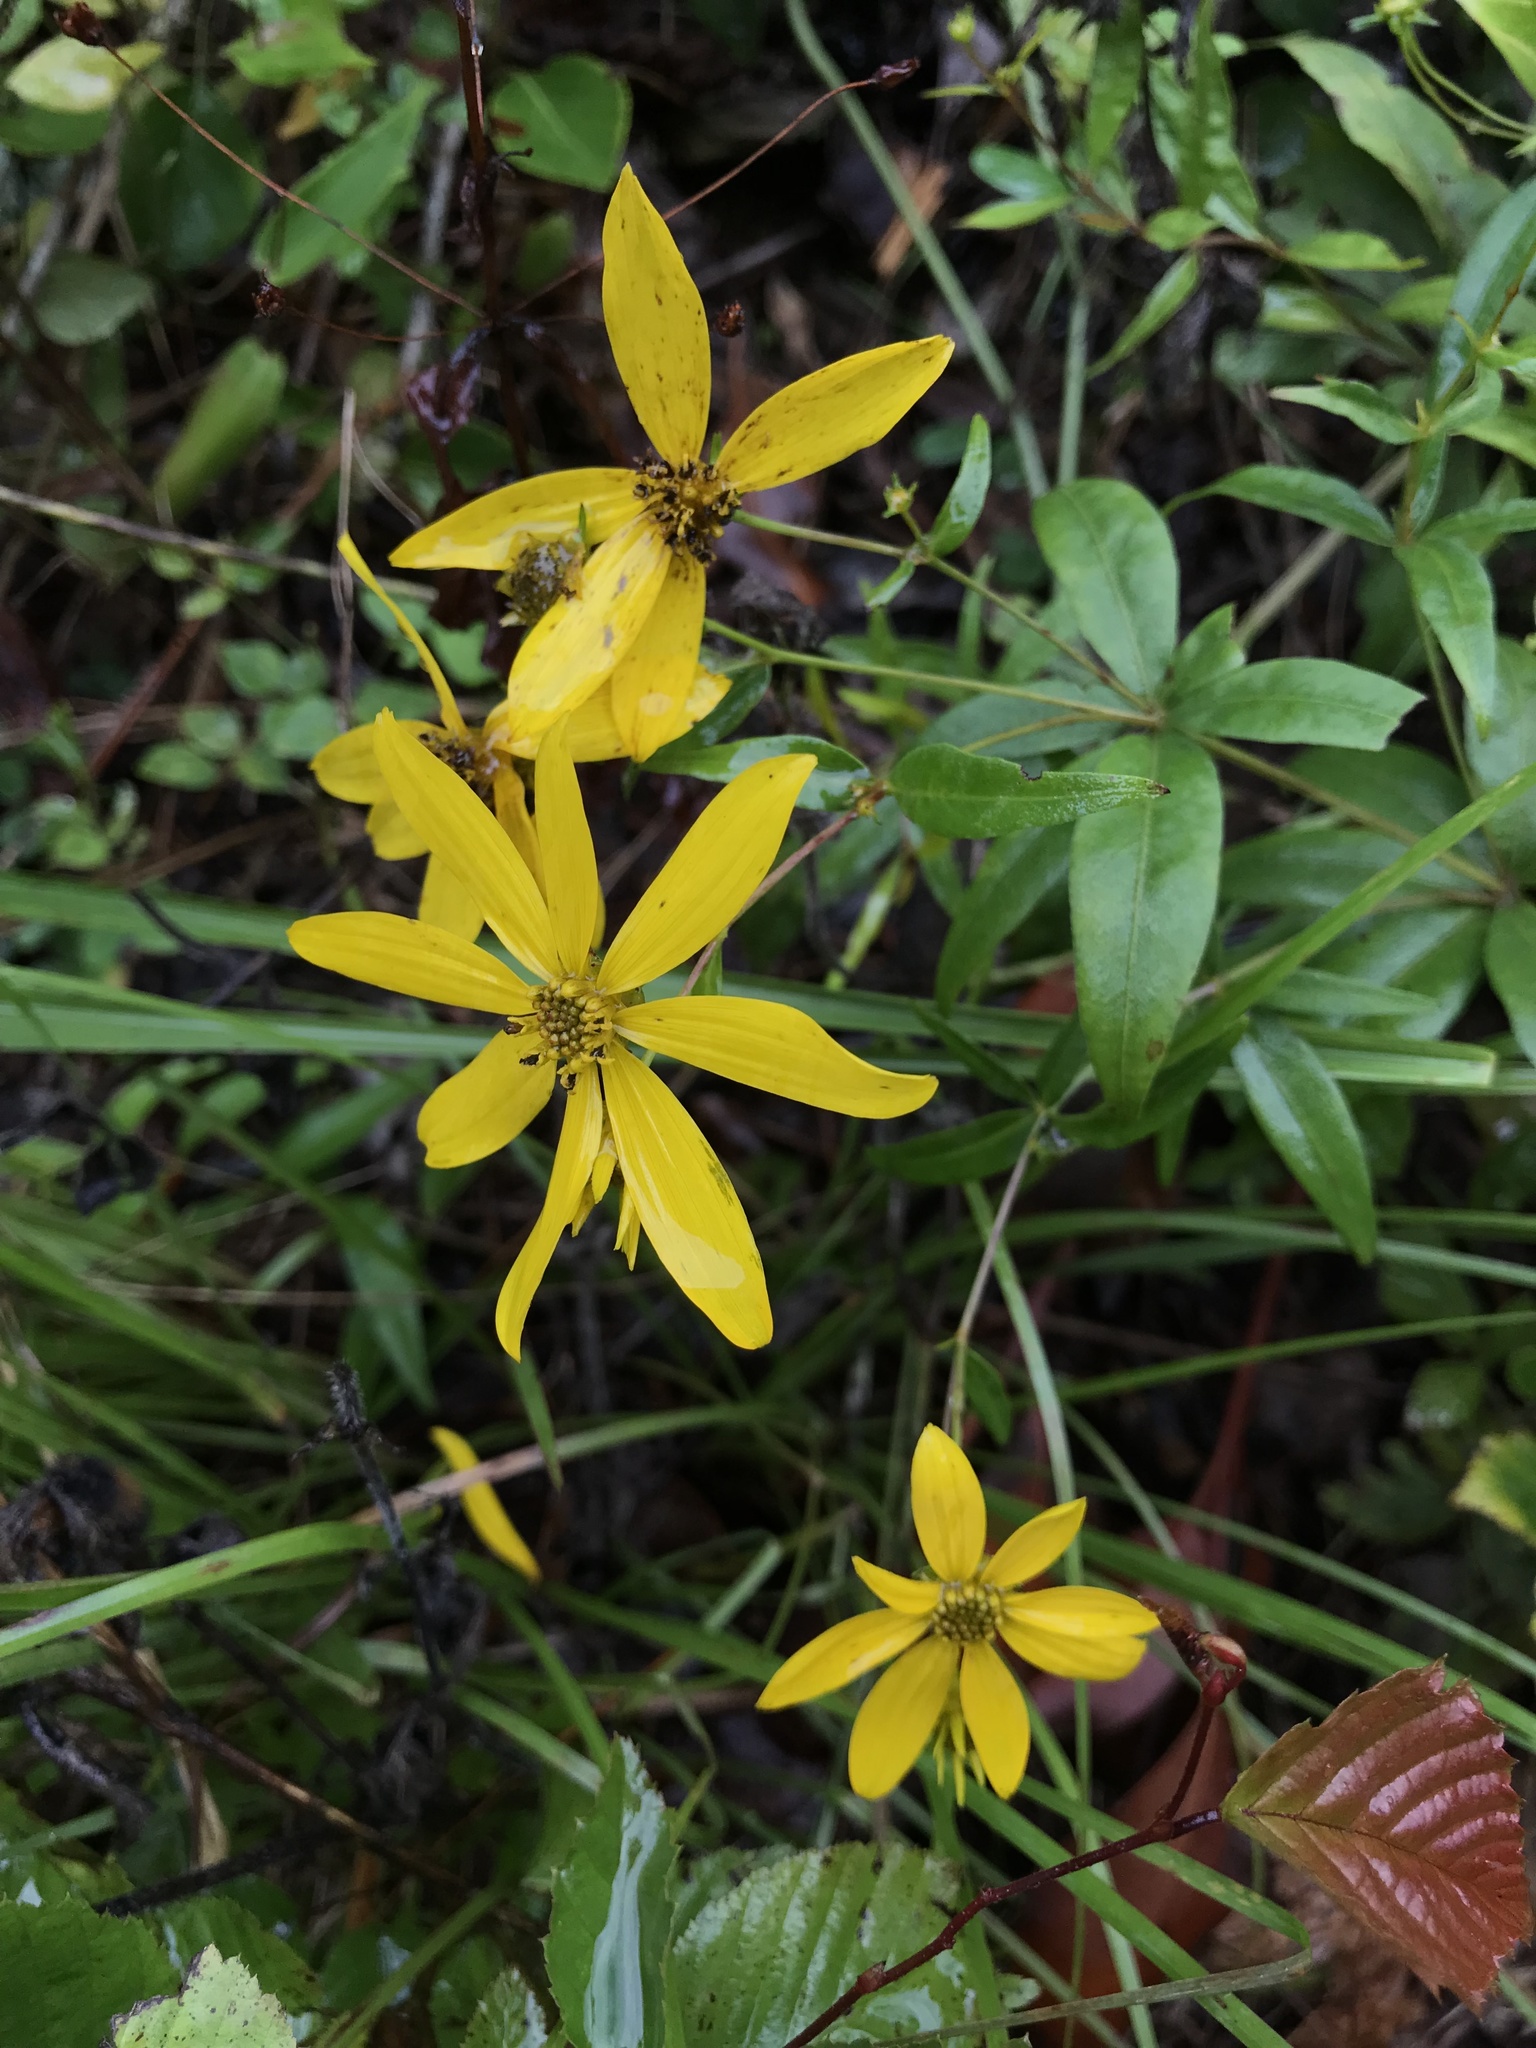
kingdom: Plantae
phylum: Tracheophyta
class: Magnoliopsida
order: Asterales
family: Asteraceae
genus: Coreopsis
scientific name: Coreopsis major
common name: Forest tickseed
